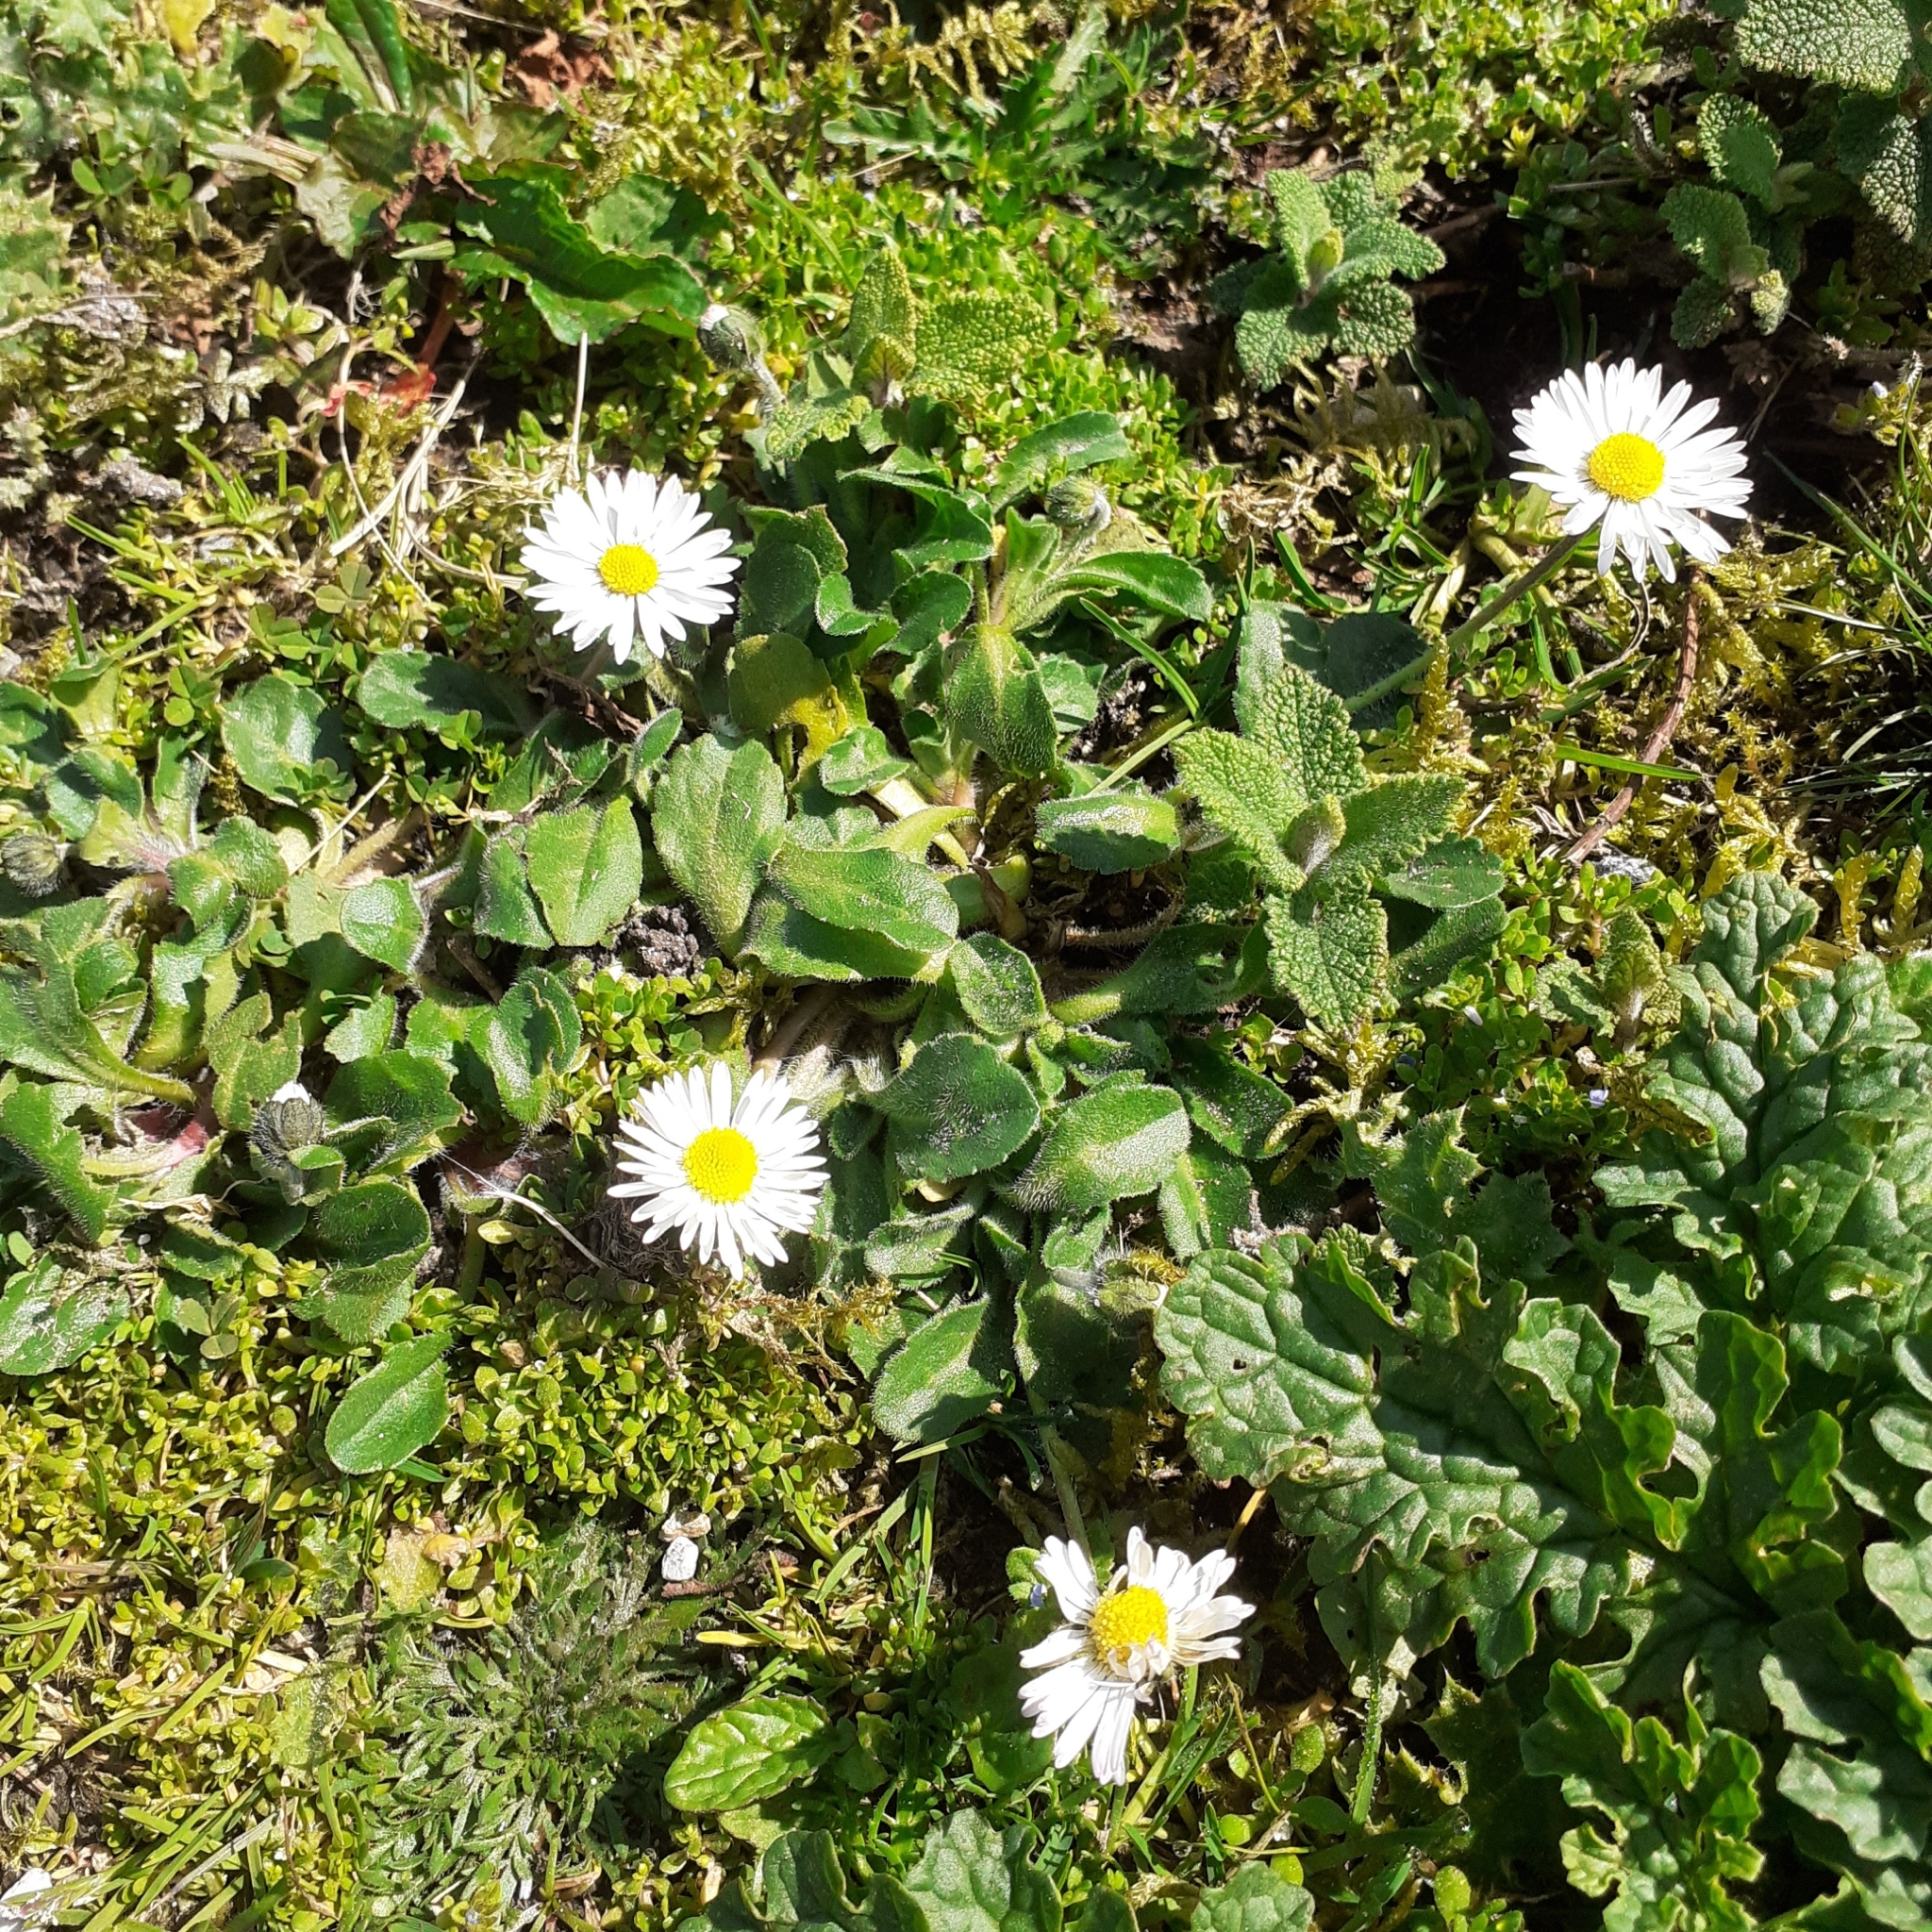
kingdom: Plantae
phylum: Tracheophyta
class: Magnoliopsida
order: Asterales
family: Asteraceae
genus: Bellis
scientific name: Bellis perennis
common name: Lawndaisy
